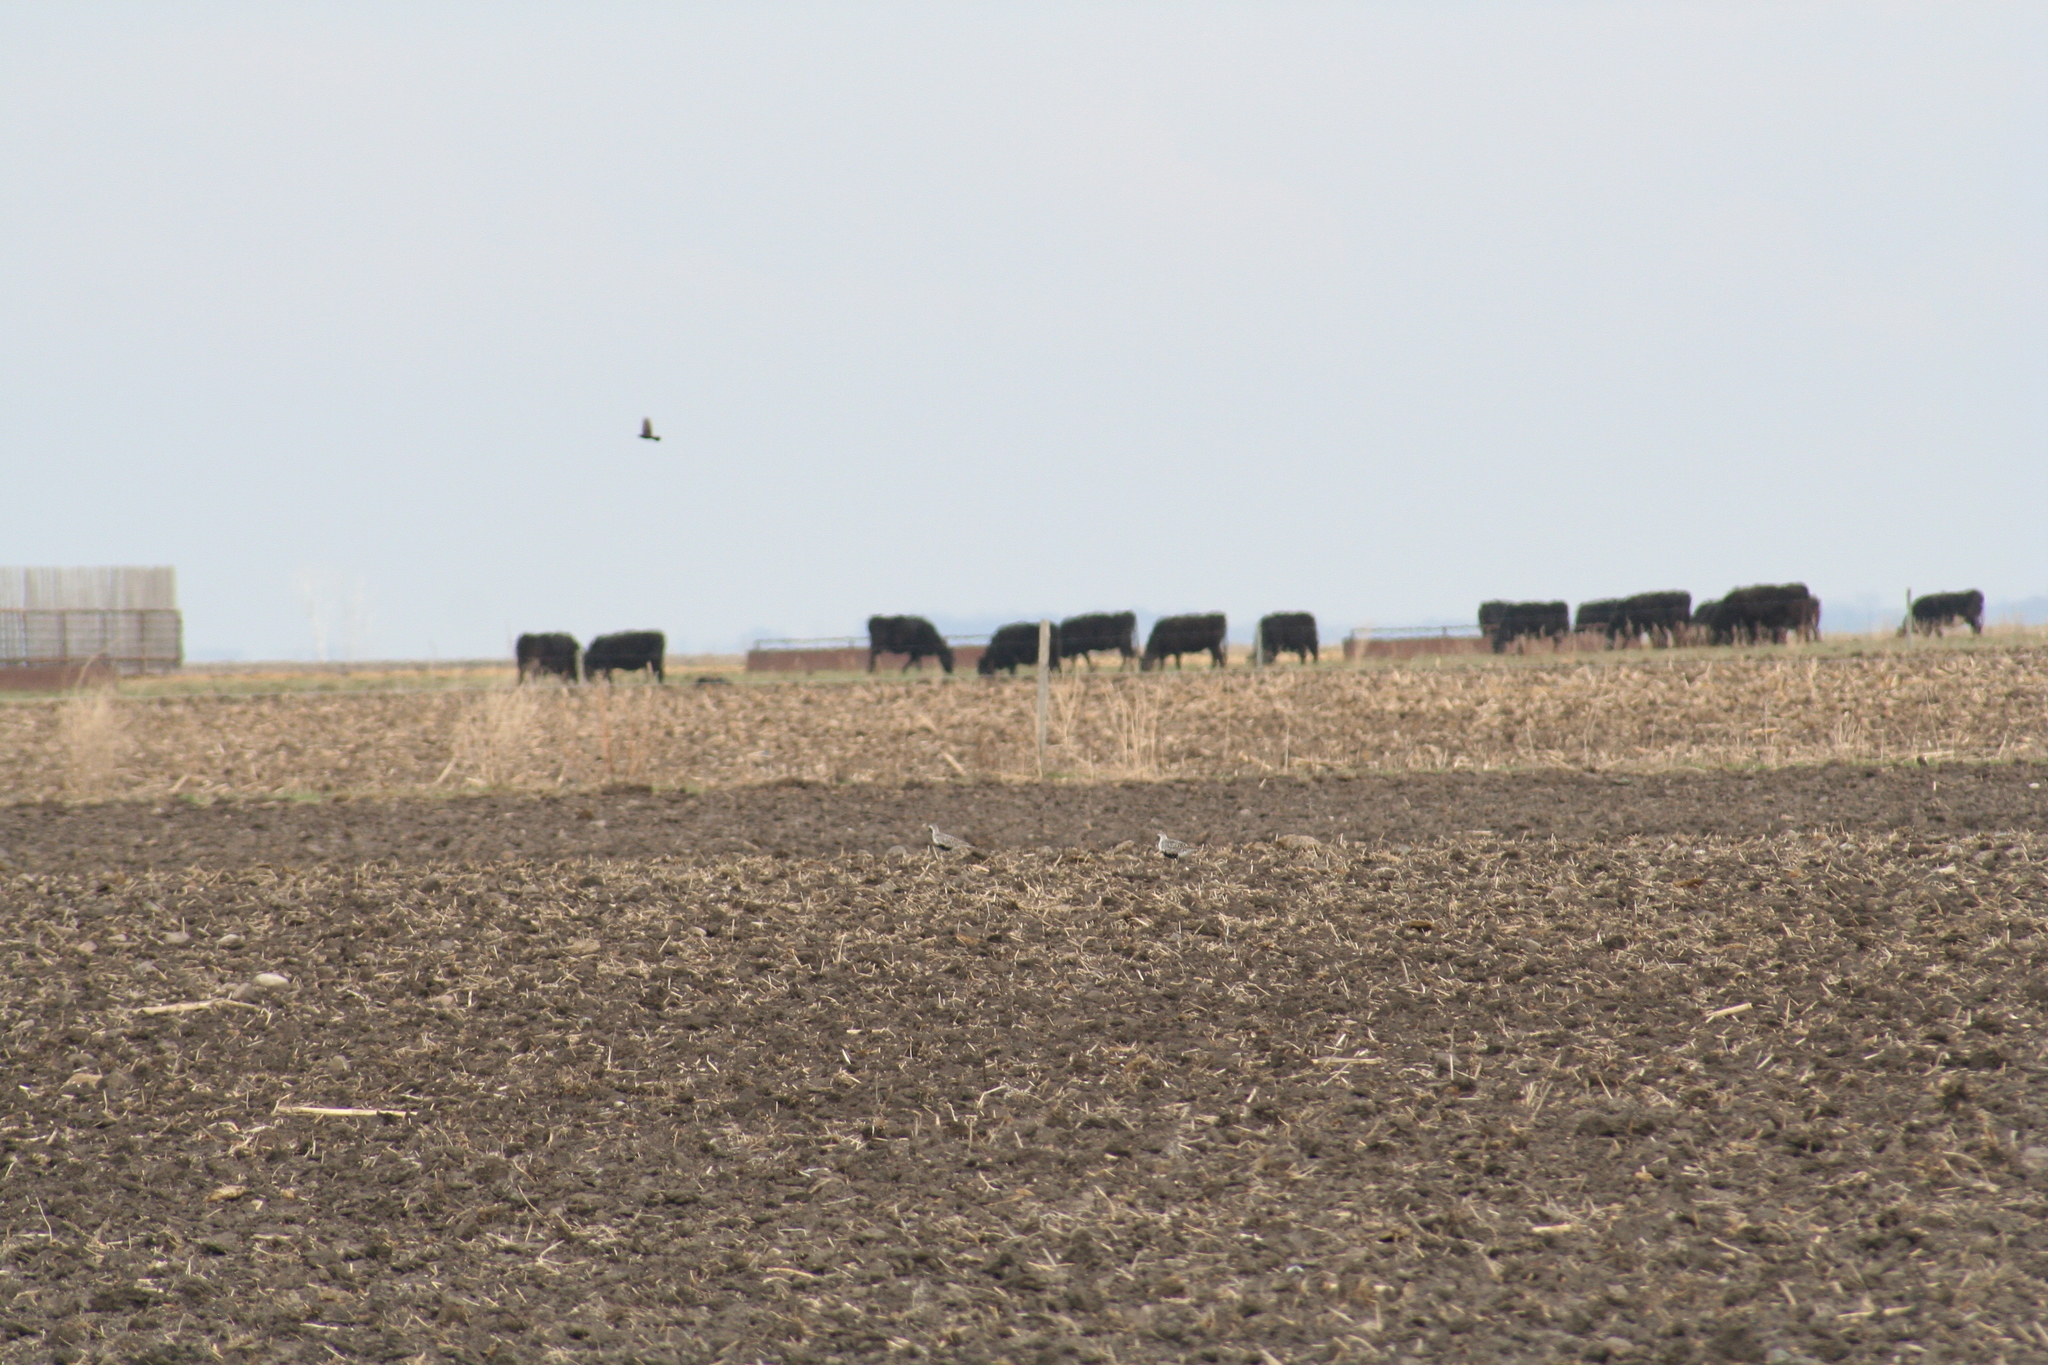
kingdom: Animalia
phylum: Chordata
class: Aves
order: Charadriiformes
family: Charadriidae
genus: Pluvialis
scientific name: Pluvialis squatarola
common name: Grey plover
